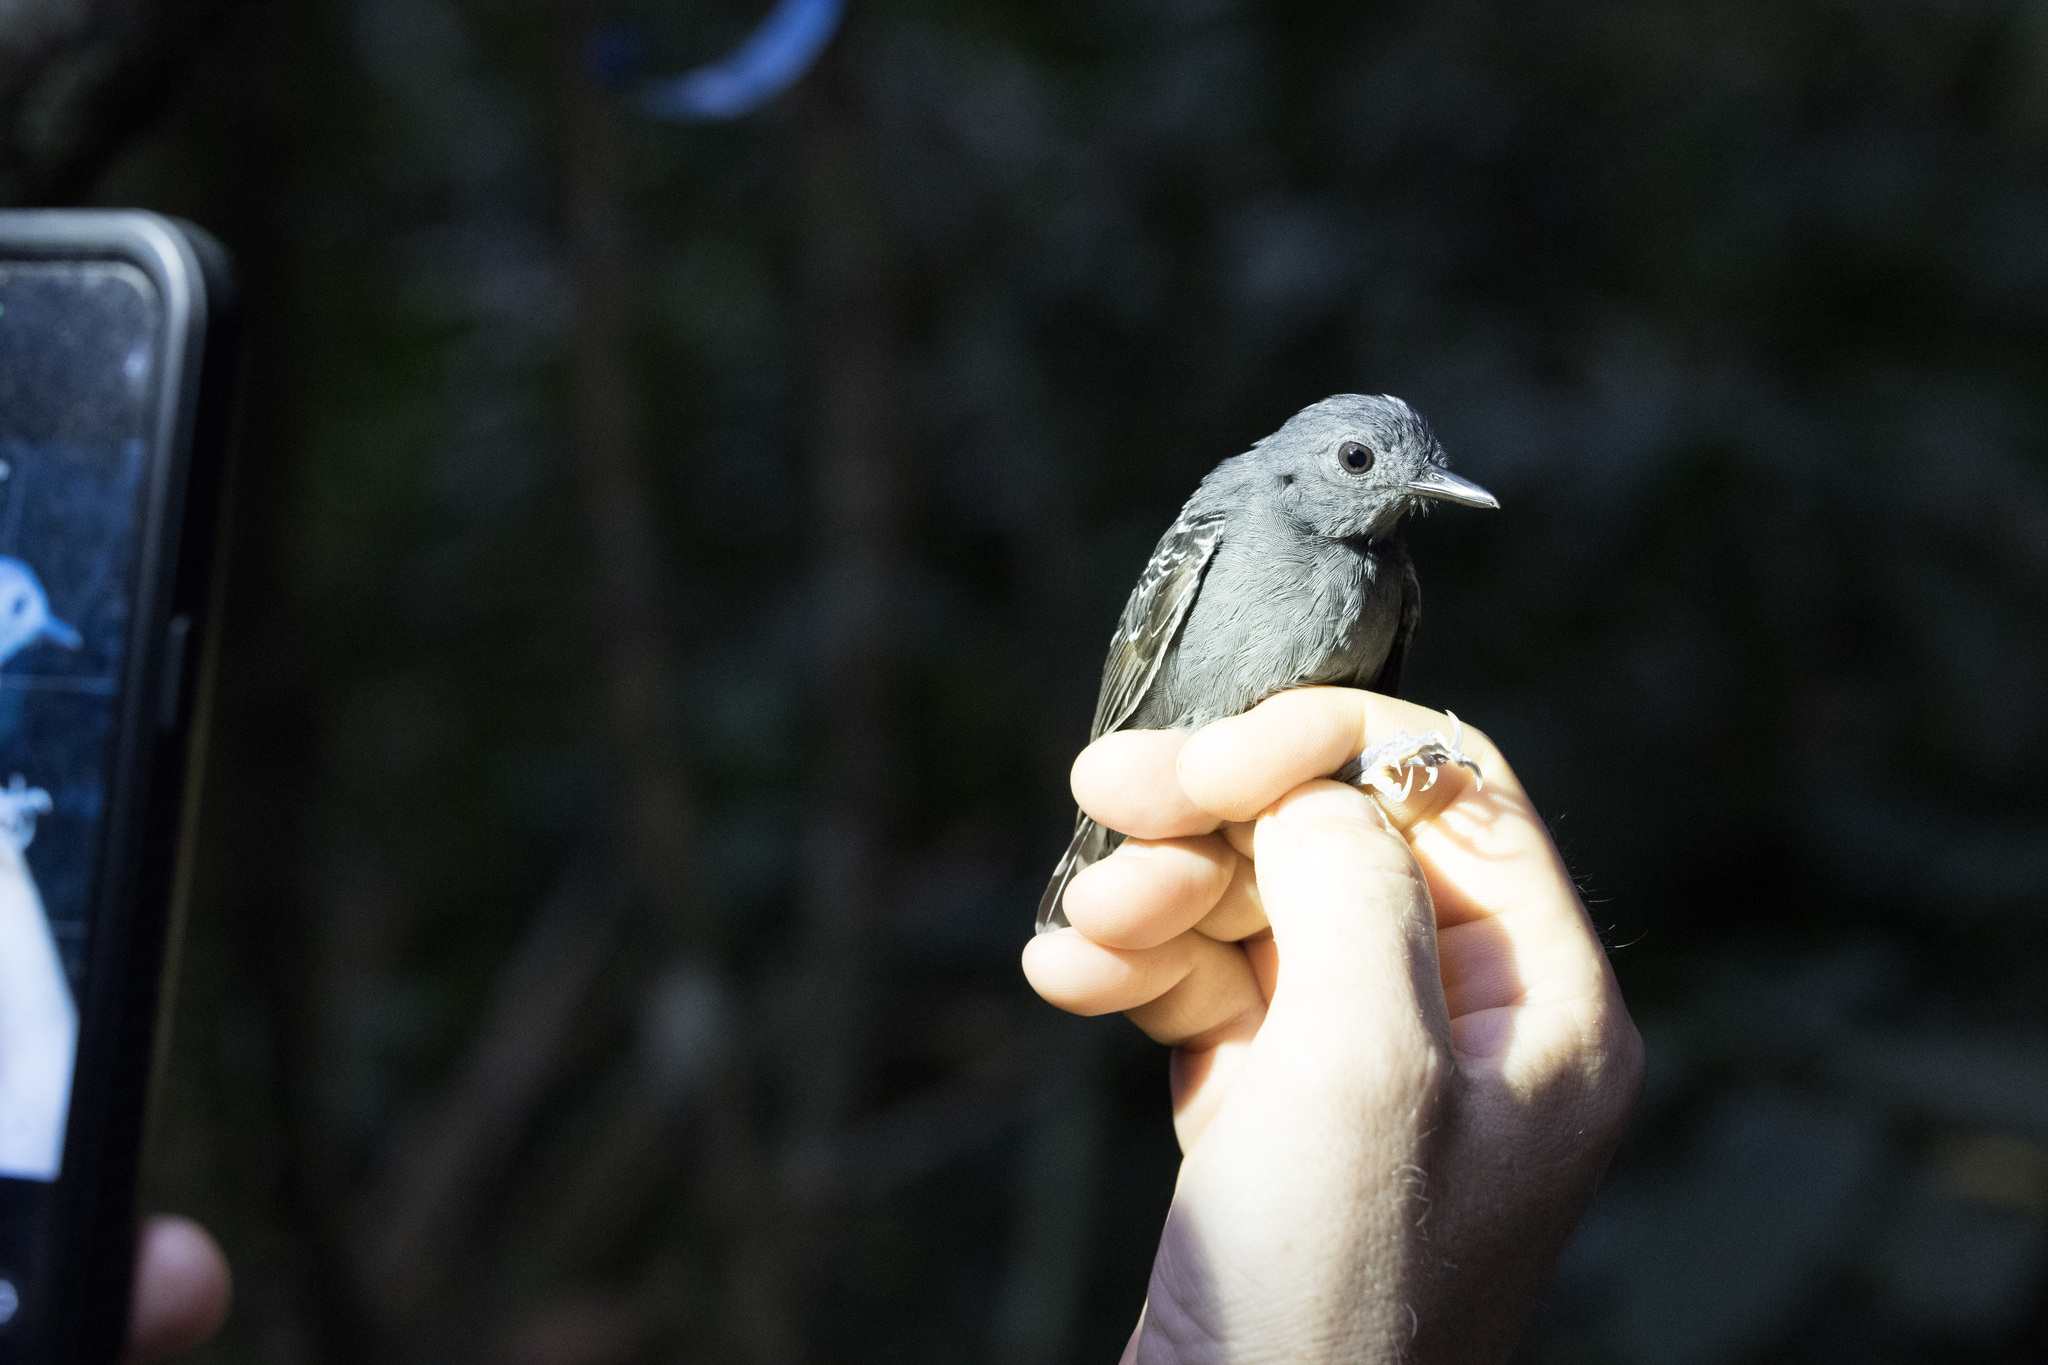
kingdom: Animalia
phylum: Chordata
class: Aves
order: Passeriformes
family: Thamnophilidae
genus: Willisornis
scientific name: Willisornis poecilinotus
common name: Common scale-backed antbird
